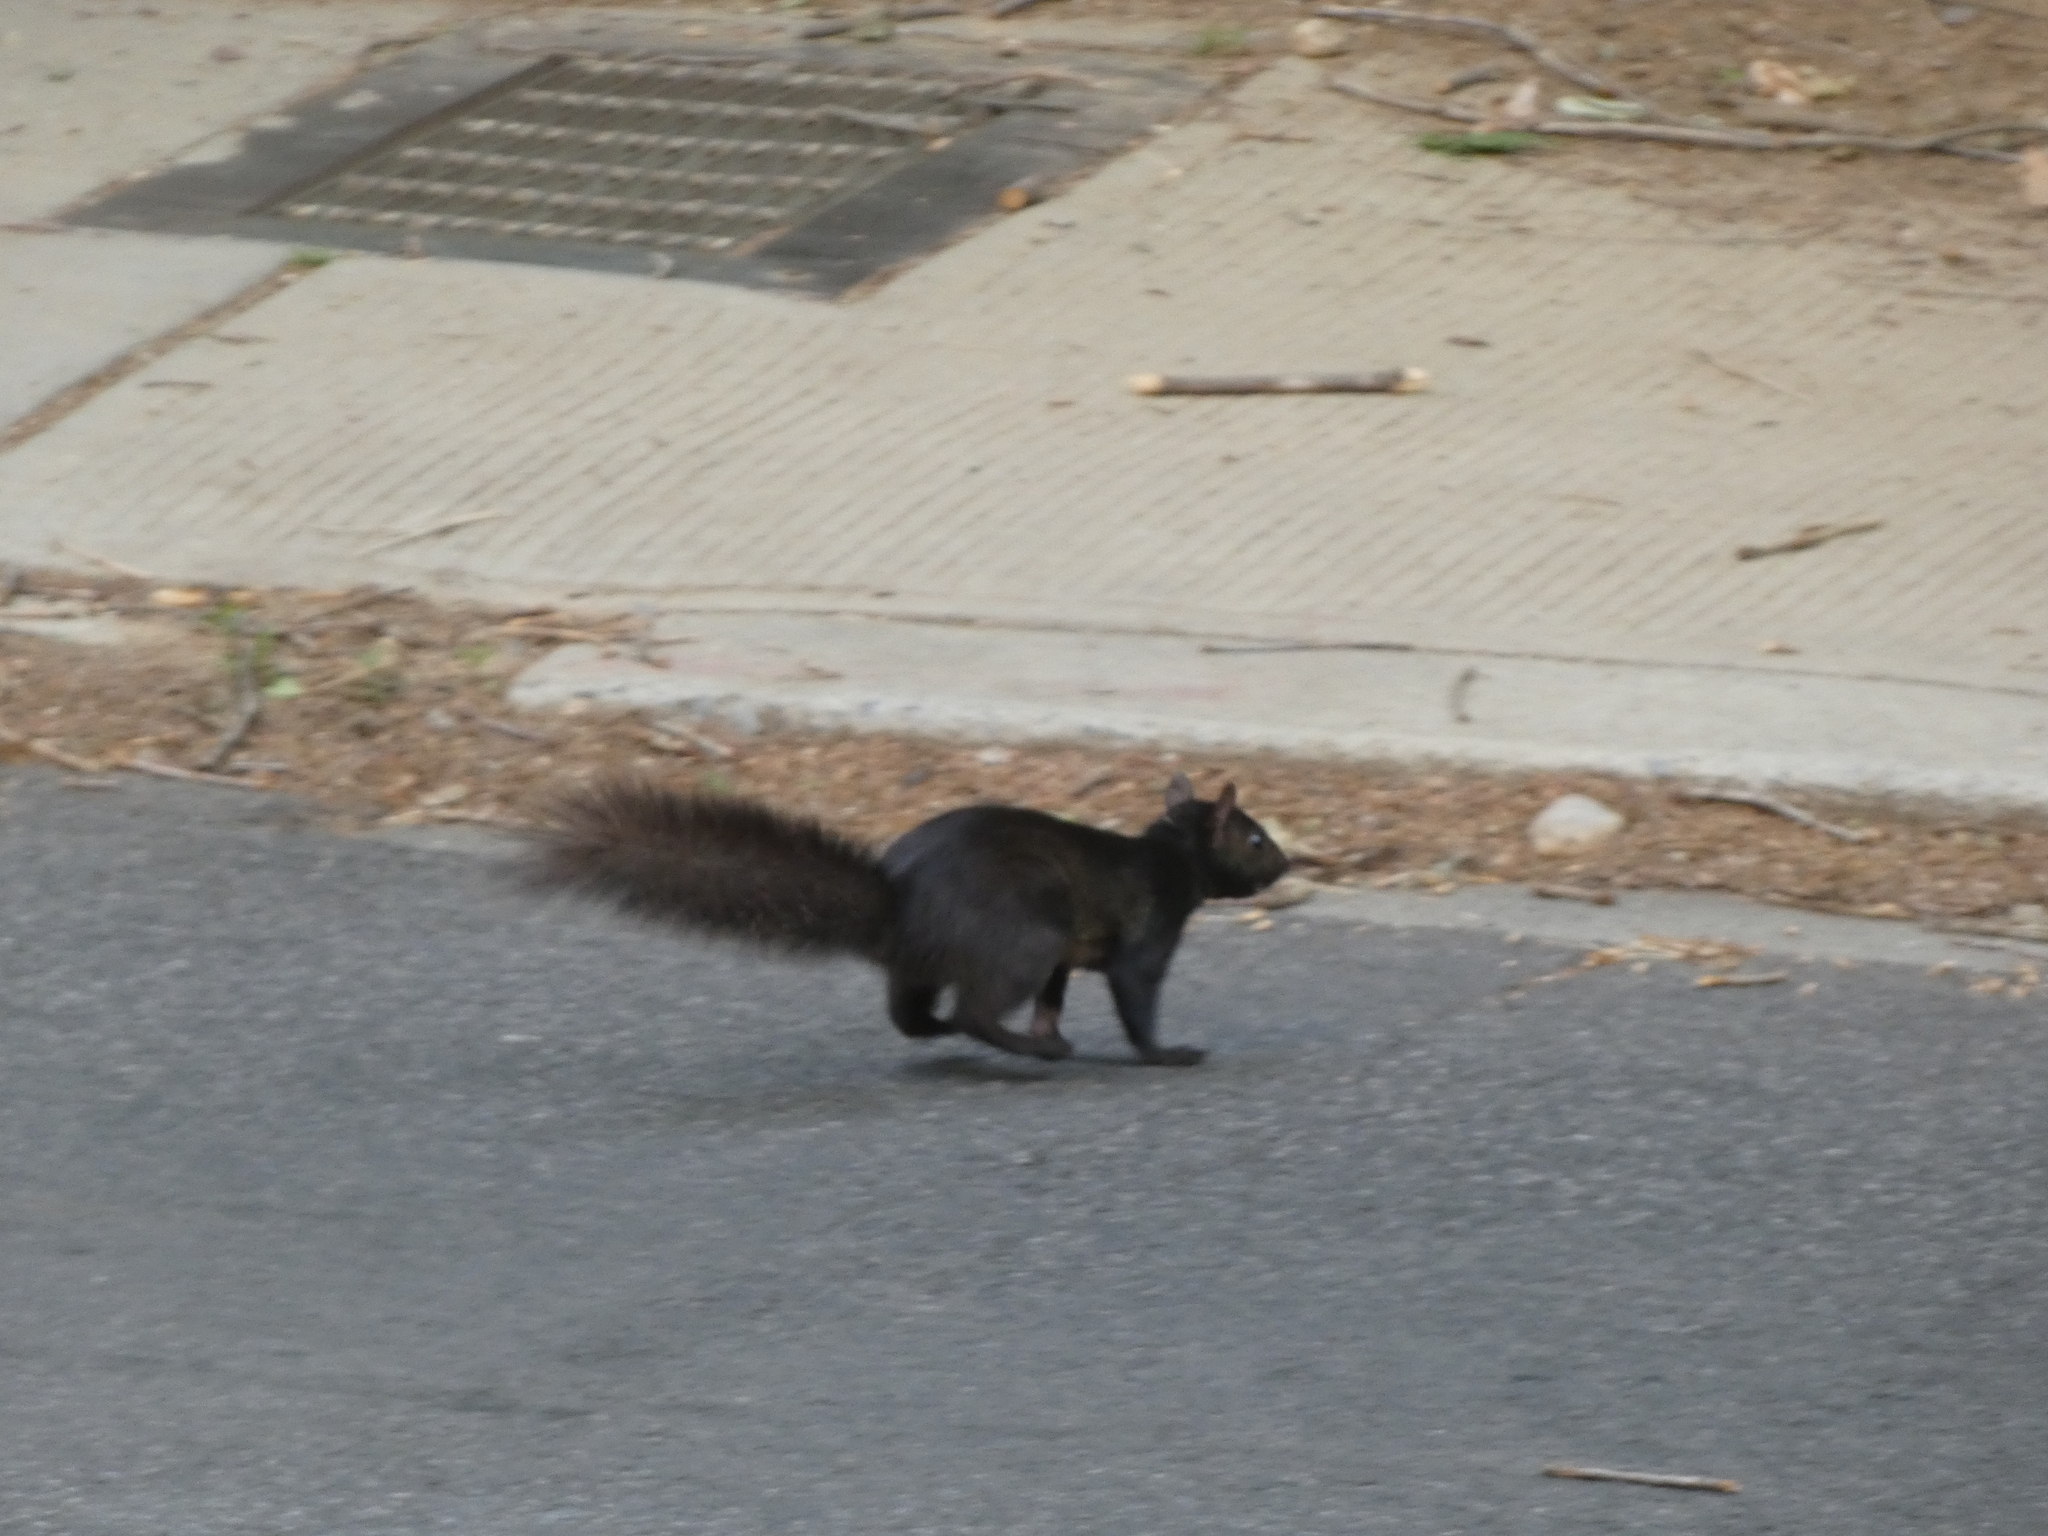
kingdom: Animalia
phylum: Chordata
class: Mammalia
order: Rodentia
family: Sciuridae
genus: Sciurus
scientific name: Sciurus carolinensis
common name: Eastern gray squirrel
